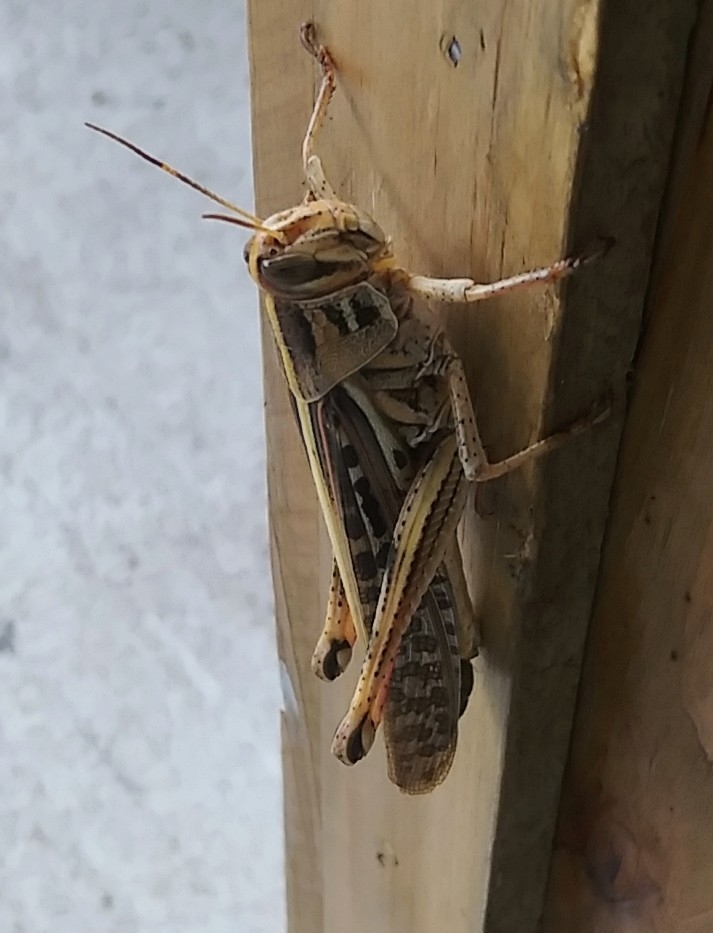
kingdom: Animalia
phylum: Arthropoda
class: Insecta
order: Orthoptera
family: Acrididae
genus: Schistocerca
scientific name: Schistocerca americana
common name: American bird locust
